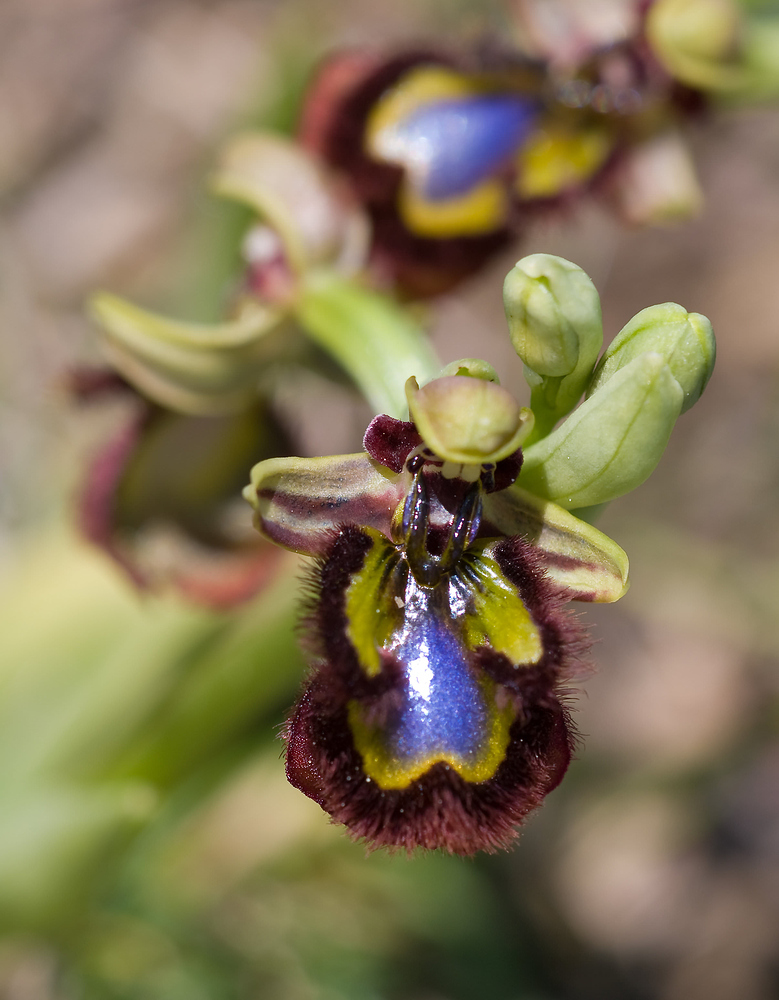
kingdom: Plantae
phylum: Tracheophyta
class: Liliopsida
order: Asparagales
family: Orchidaceae
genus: Ophrys
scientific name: Ophrys speculum
